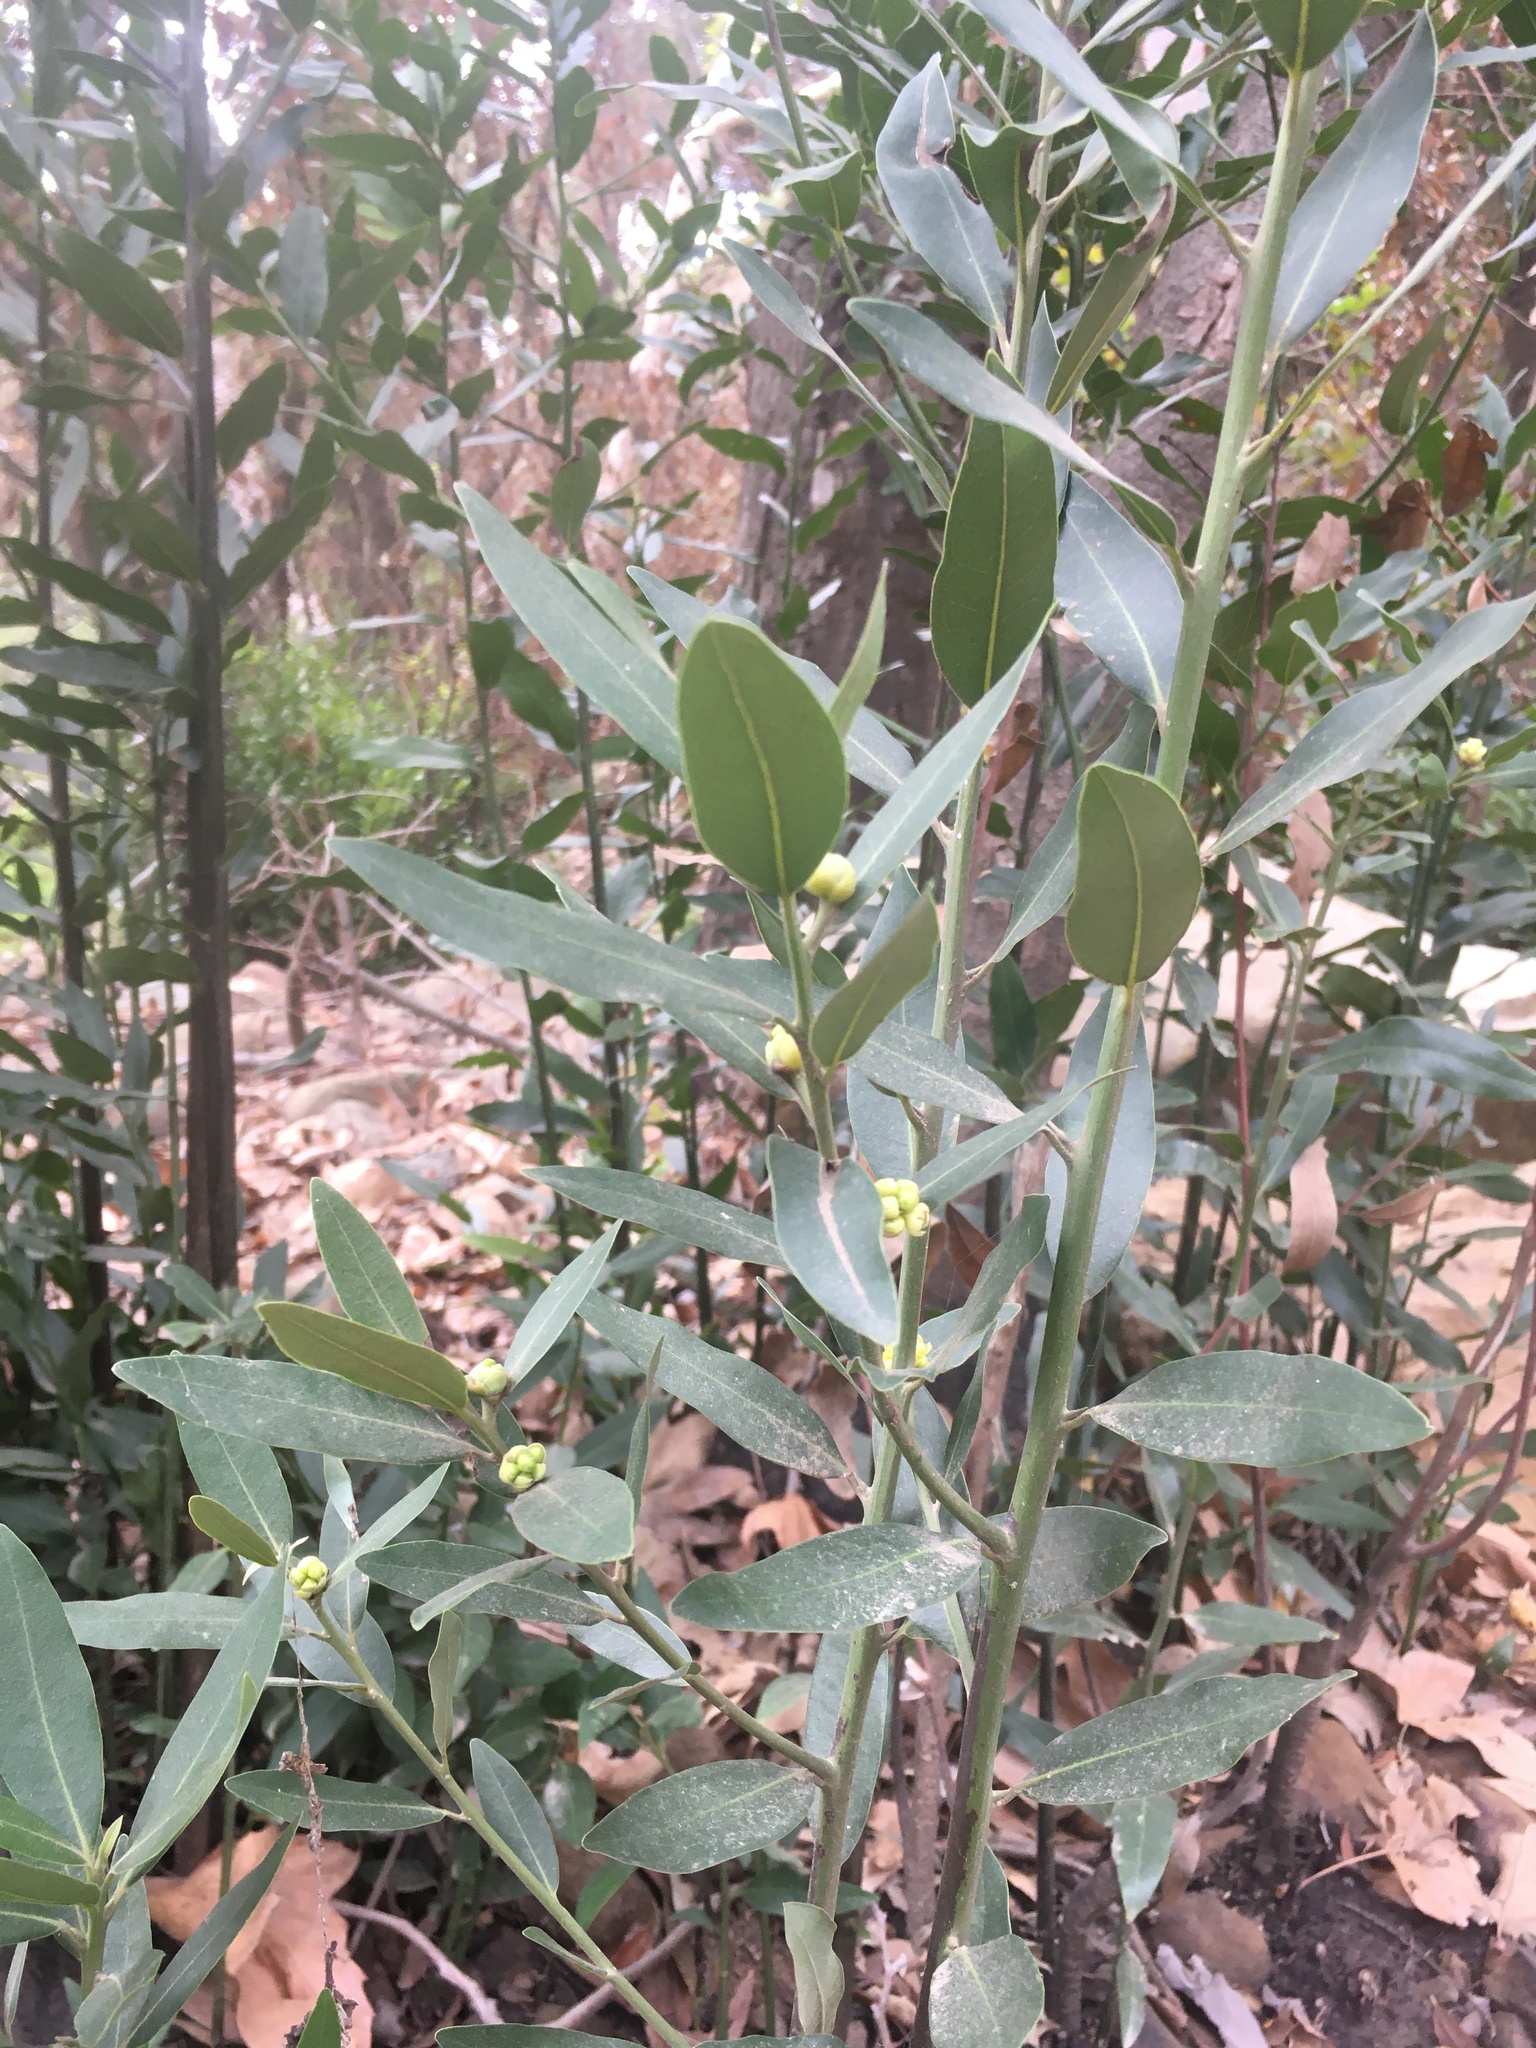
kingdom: Plantae
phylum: Tracheophyta
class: Magnoliopsida
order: Laurales
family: Lauraceae
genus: Umbellularia
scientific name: Umbellularia californica
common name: California bay
